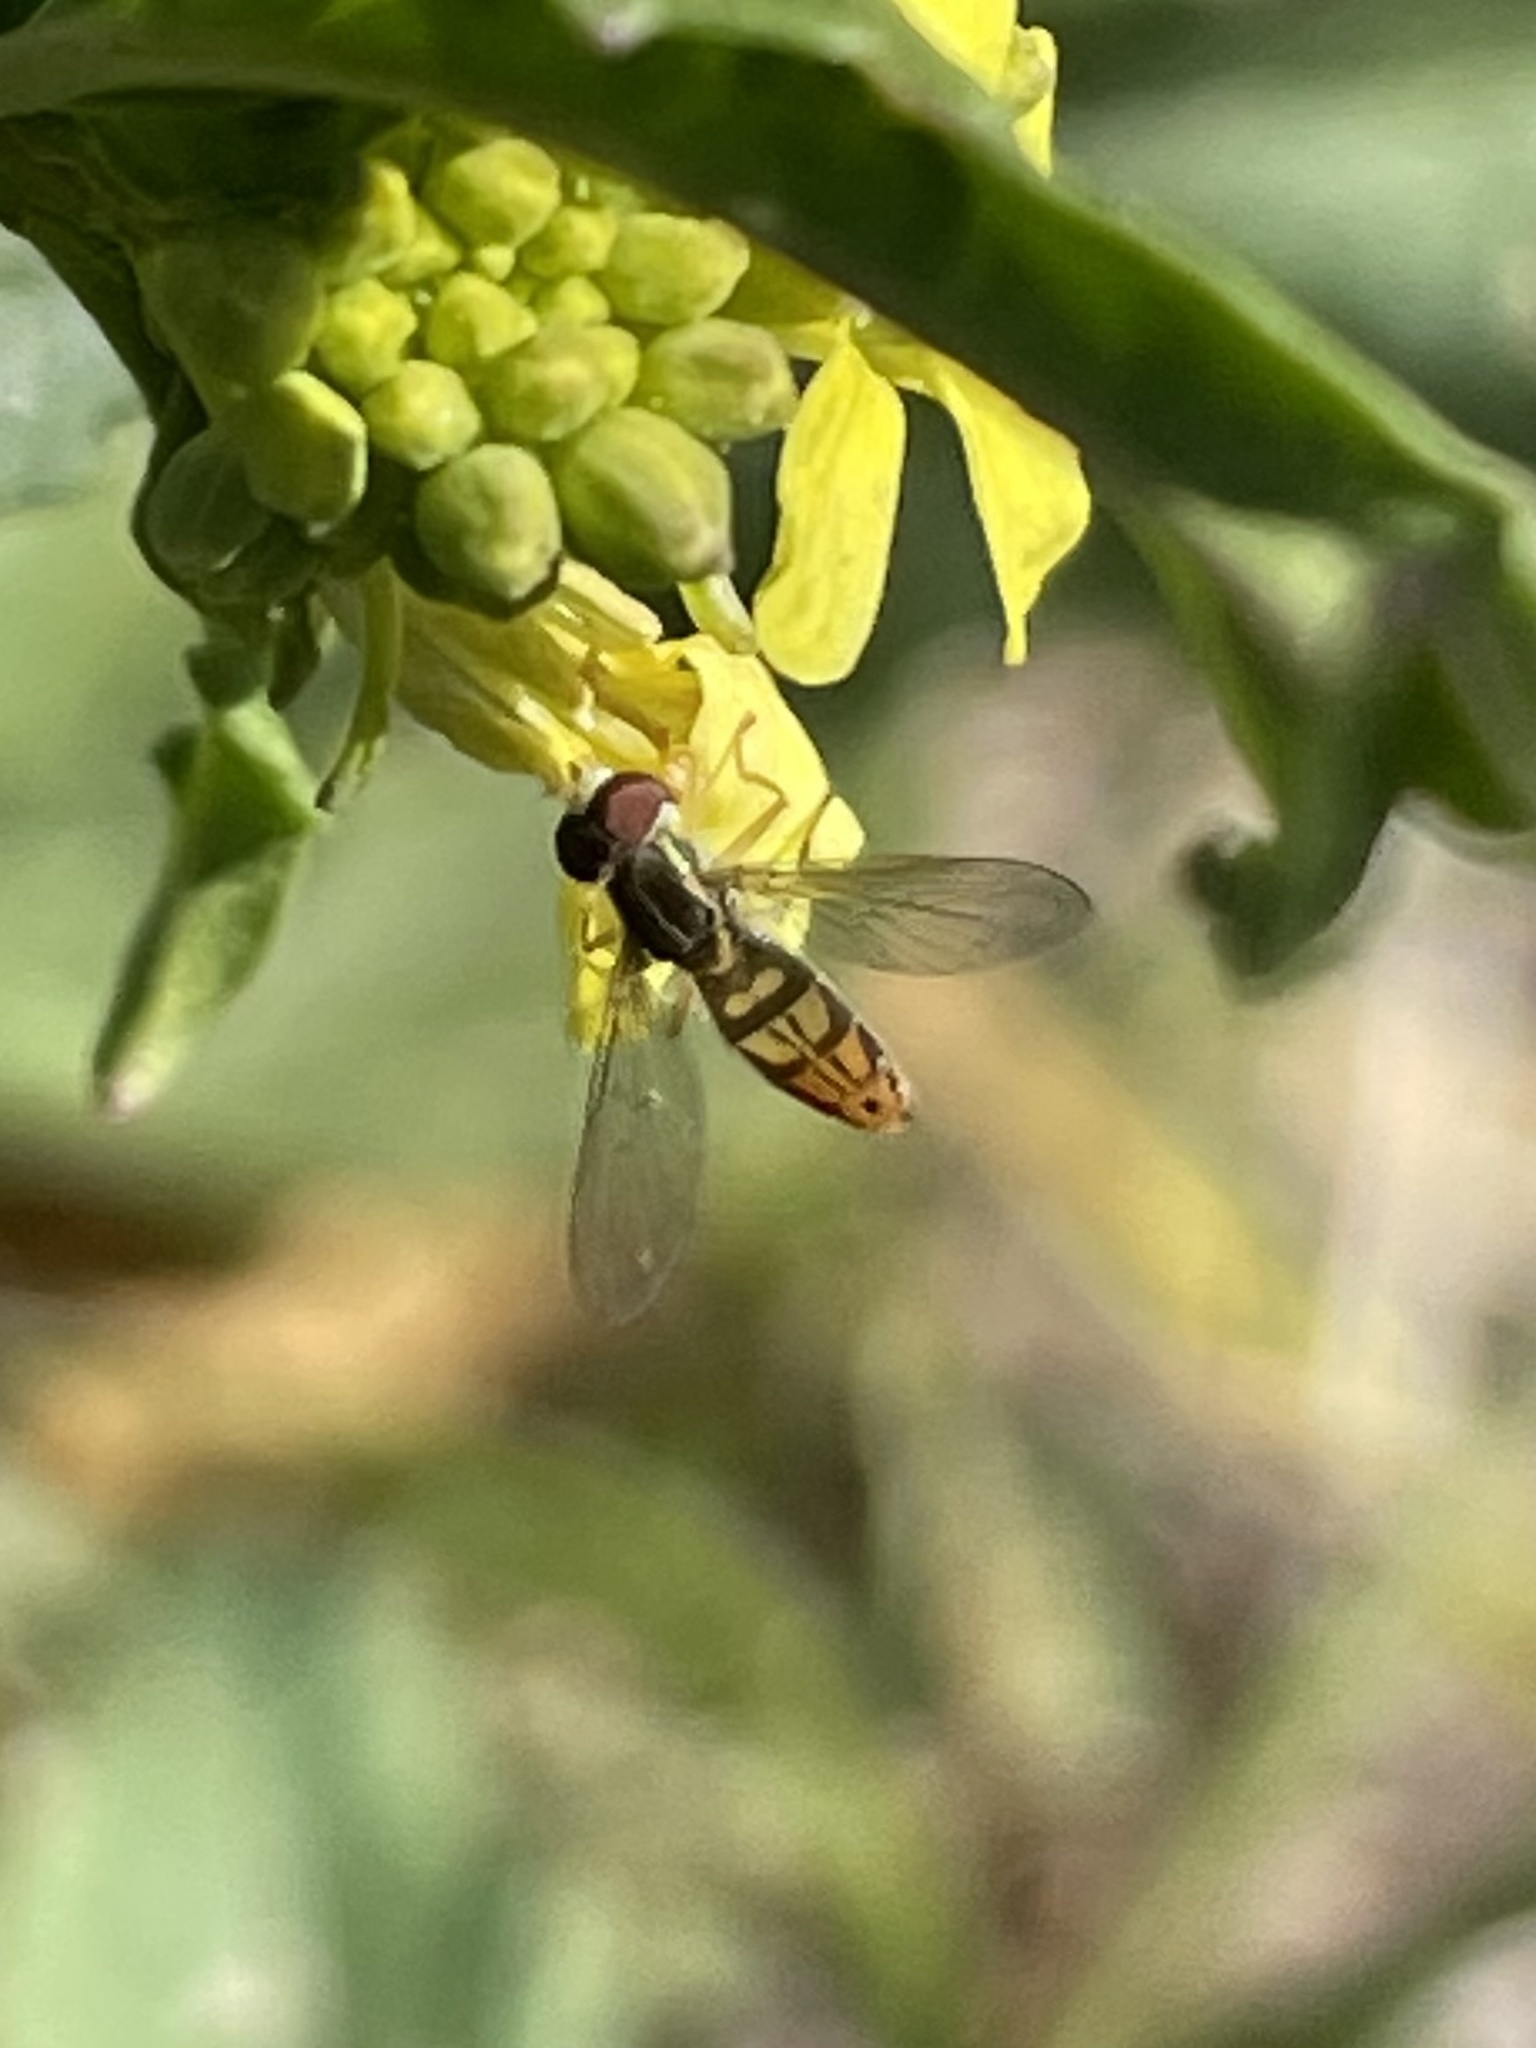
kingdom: Animalia
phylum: Arthropoda
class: Insecta
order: Diptera
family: Syrphidae
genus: Toxomerus
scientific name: Toxomerus marginatus
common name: Syrphid fly
